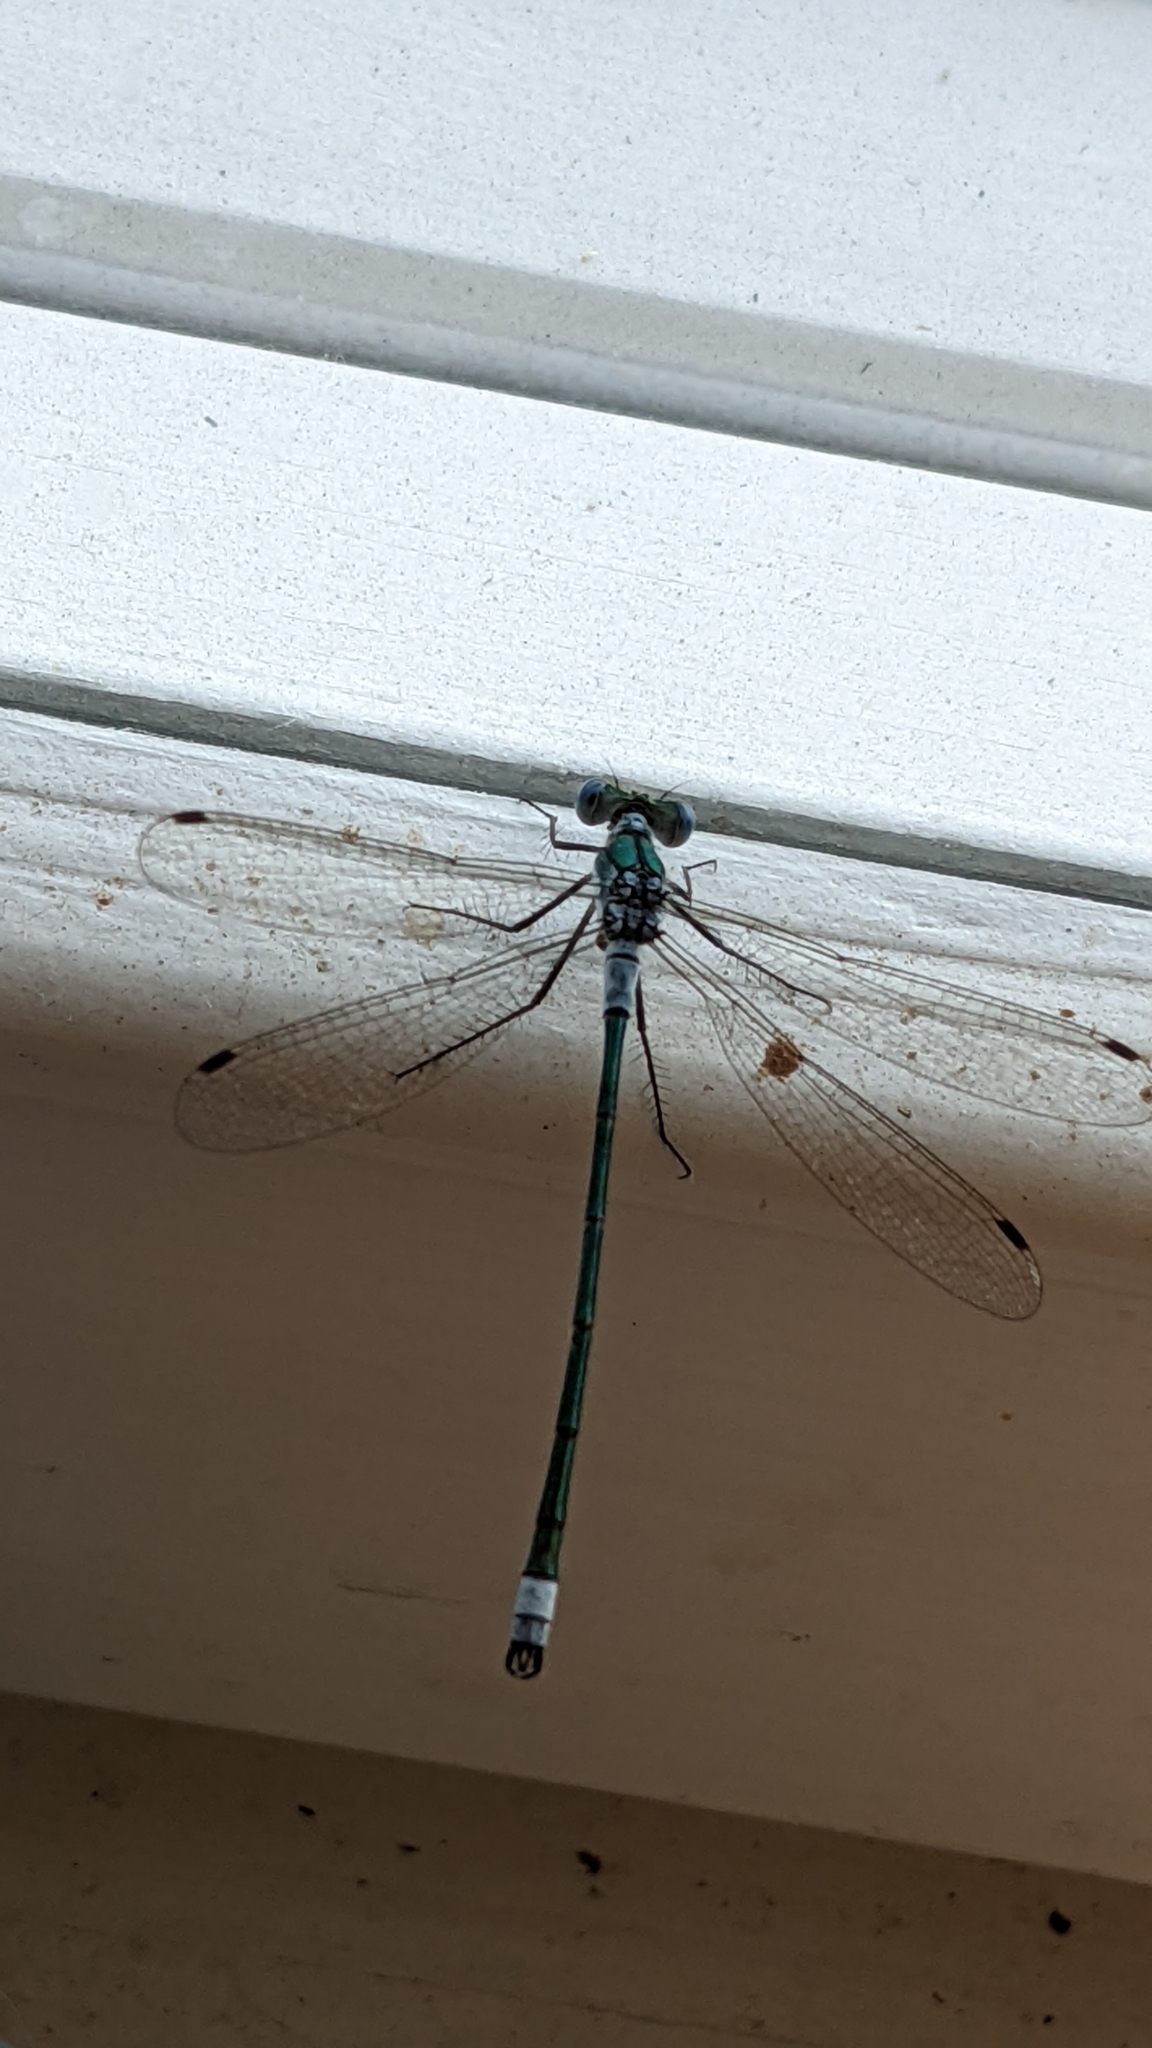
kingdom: Animalia
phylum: Arthropoda
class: Insecta
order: Odonata
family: Lestidae
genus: Lestes
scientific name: Lestes sponsa
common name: Common spreadwing
